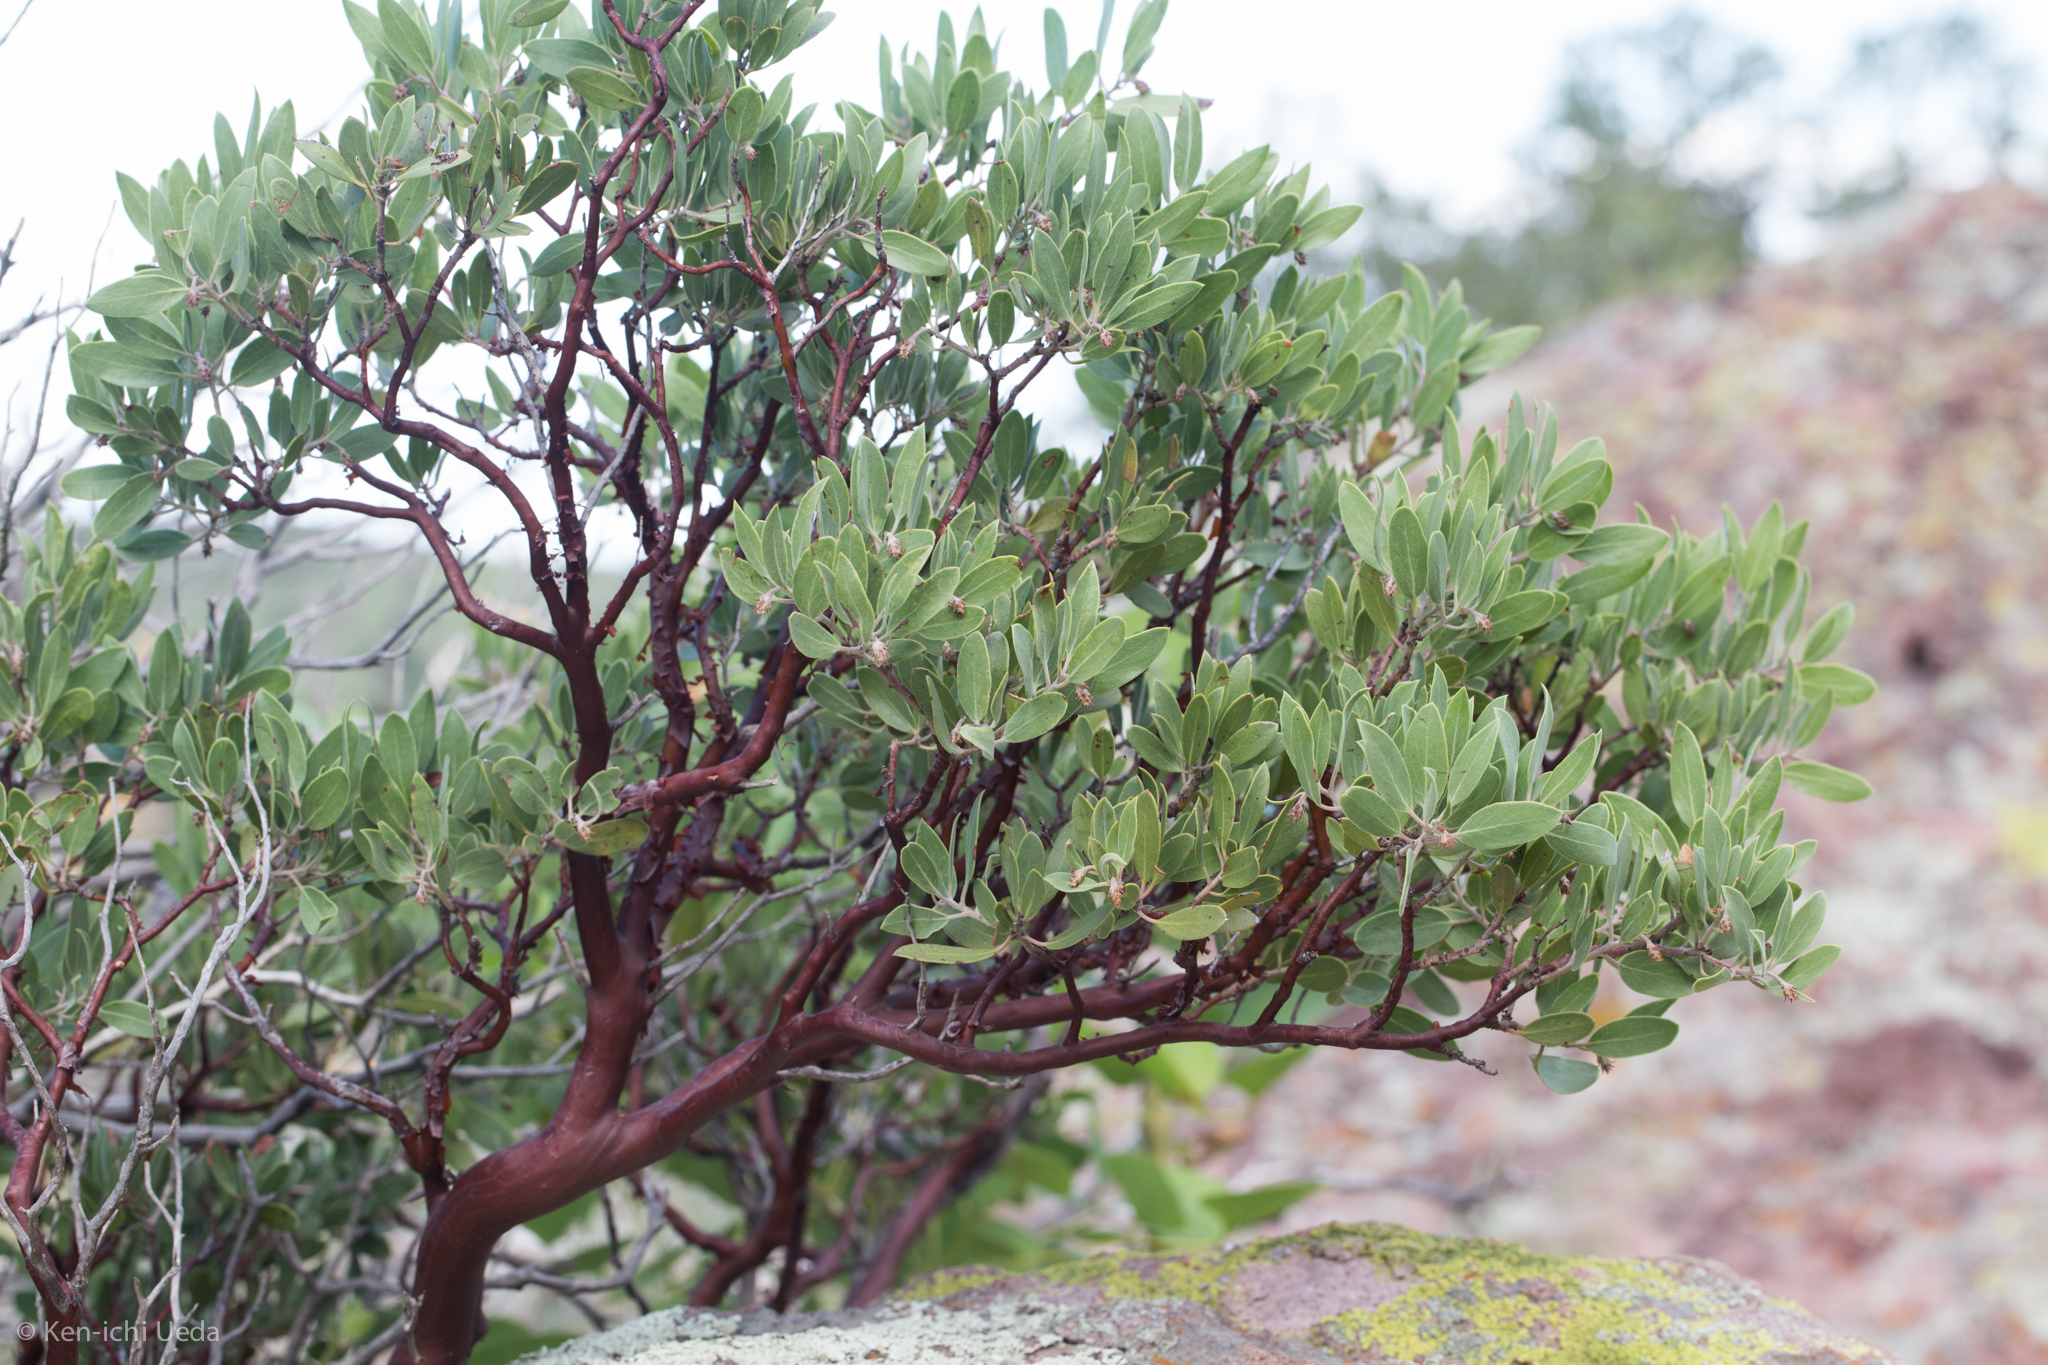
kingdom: Plantae
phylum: Tracheophyta
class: Magnoliopsida
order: Ericales
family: Ericaceae
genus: Arctostaphylos
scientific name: Arctostaphylos pungens
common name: Mexican manzanita
